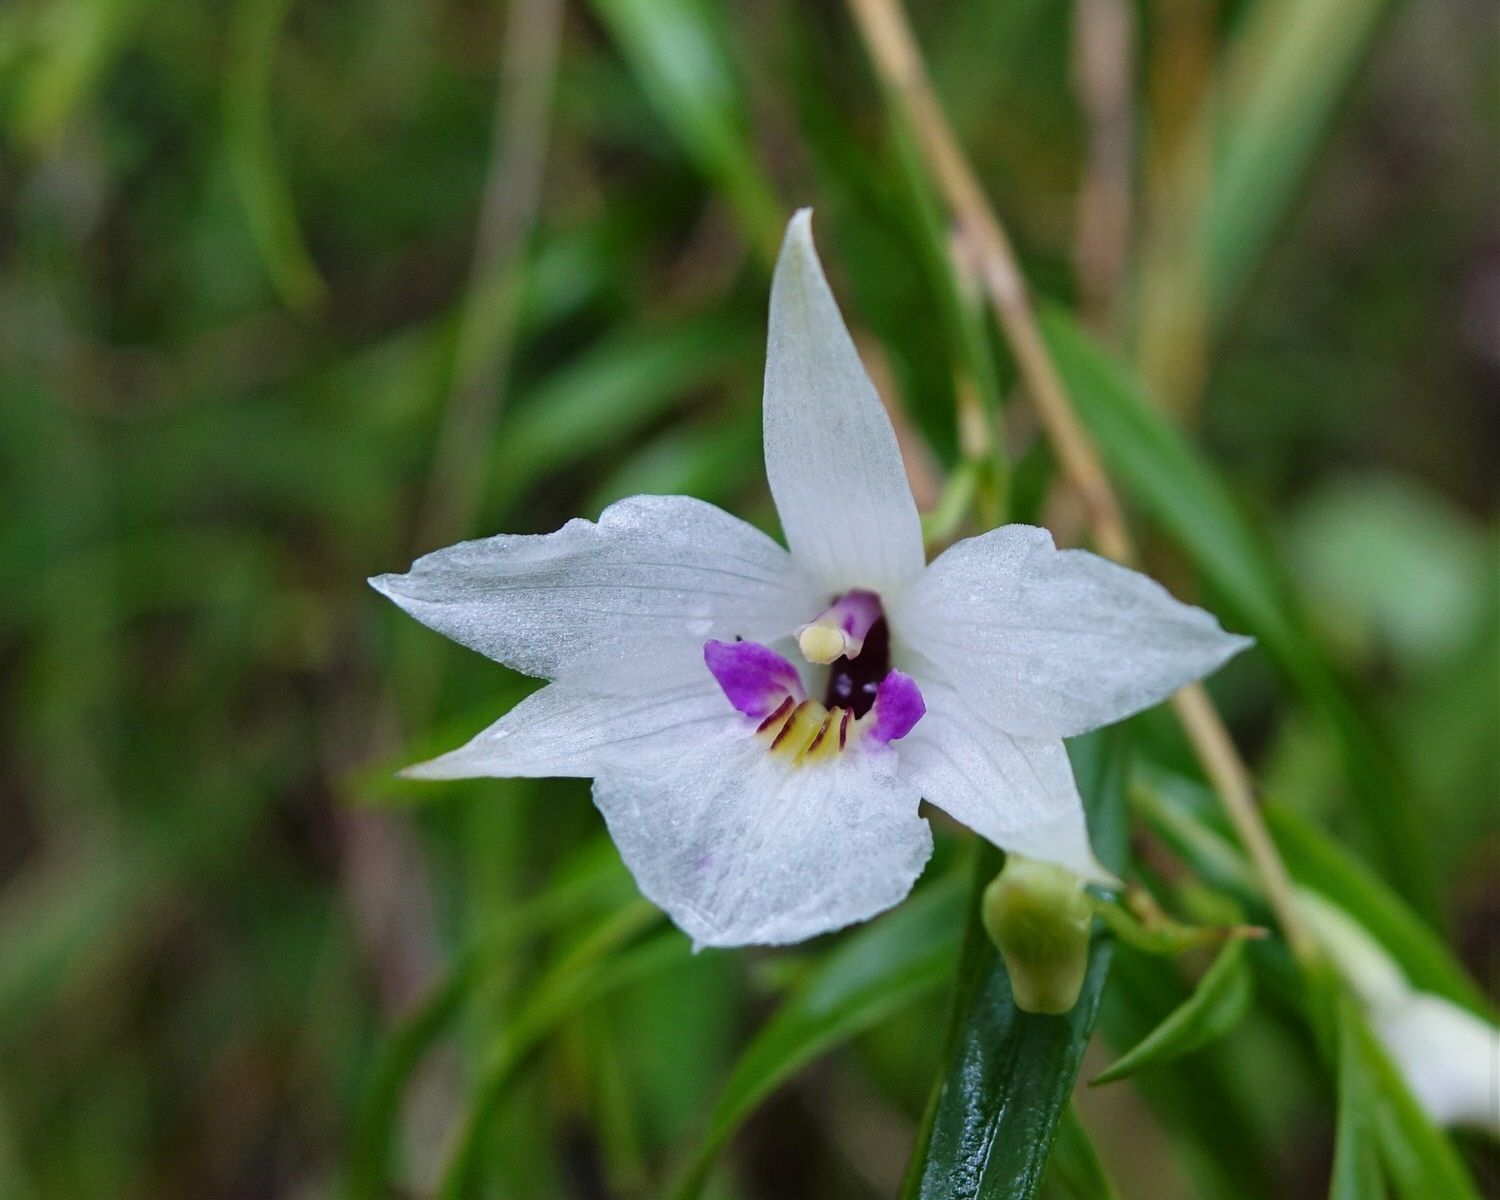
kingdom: Plantae
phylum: Tracheophyta
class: Liliopsida
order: Asparagales
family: Orchidaceae
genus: Dendrobium
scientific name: Dendrobium cunninghamii
